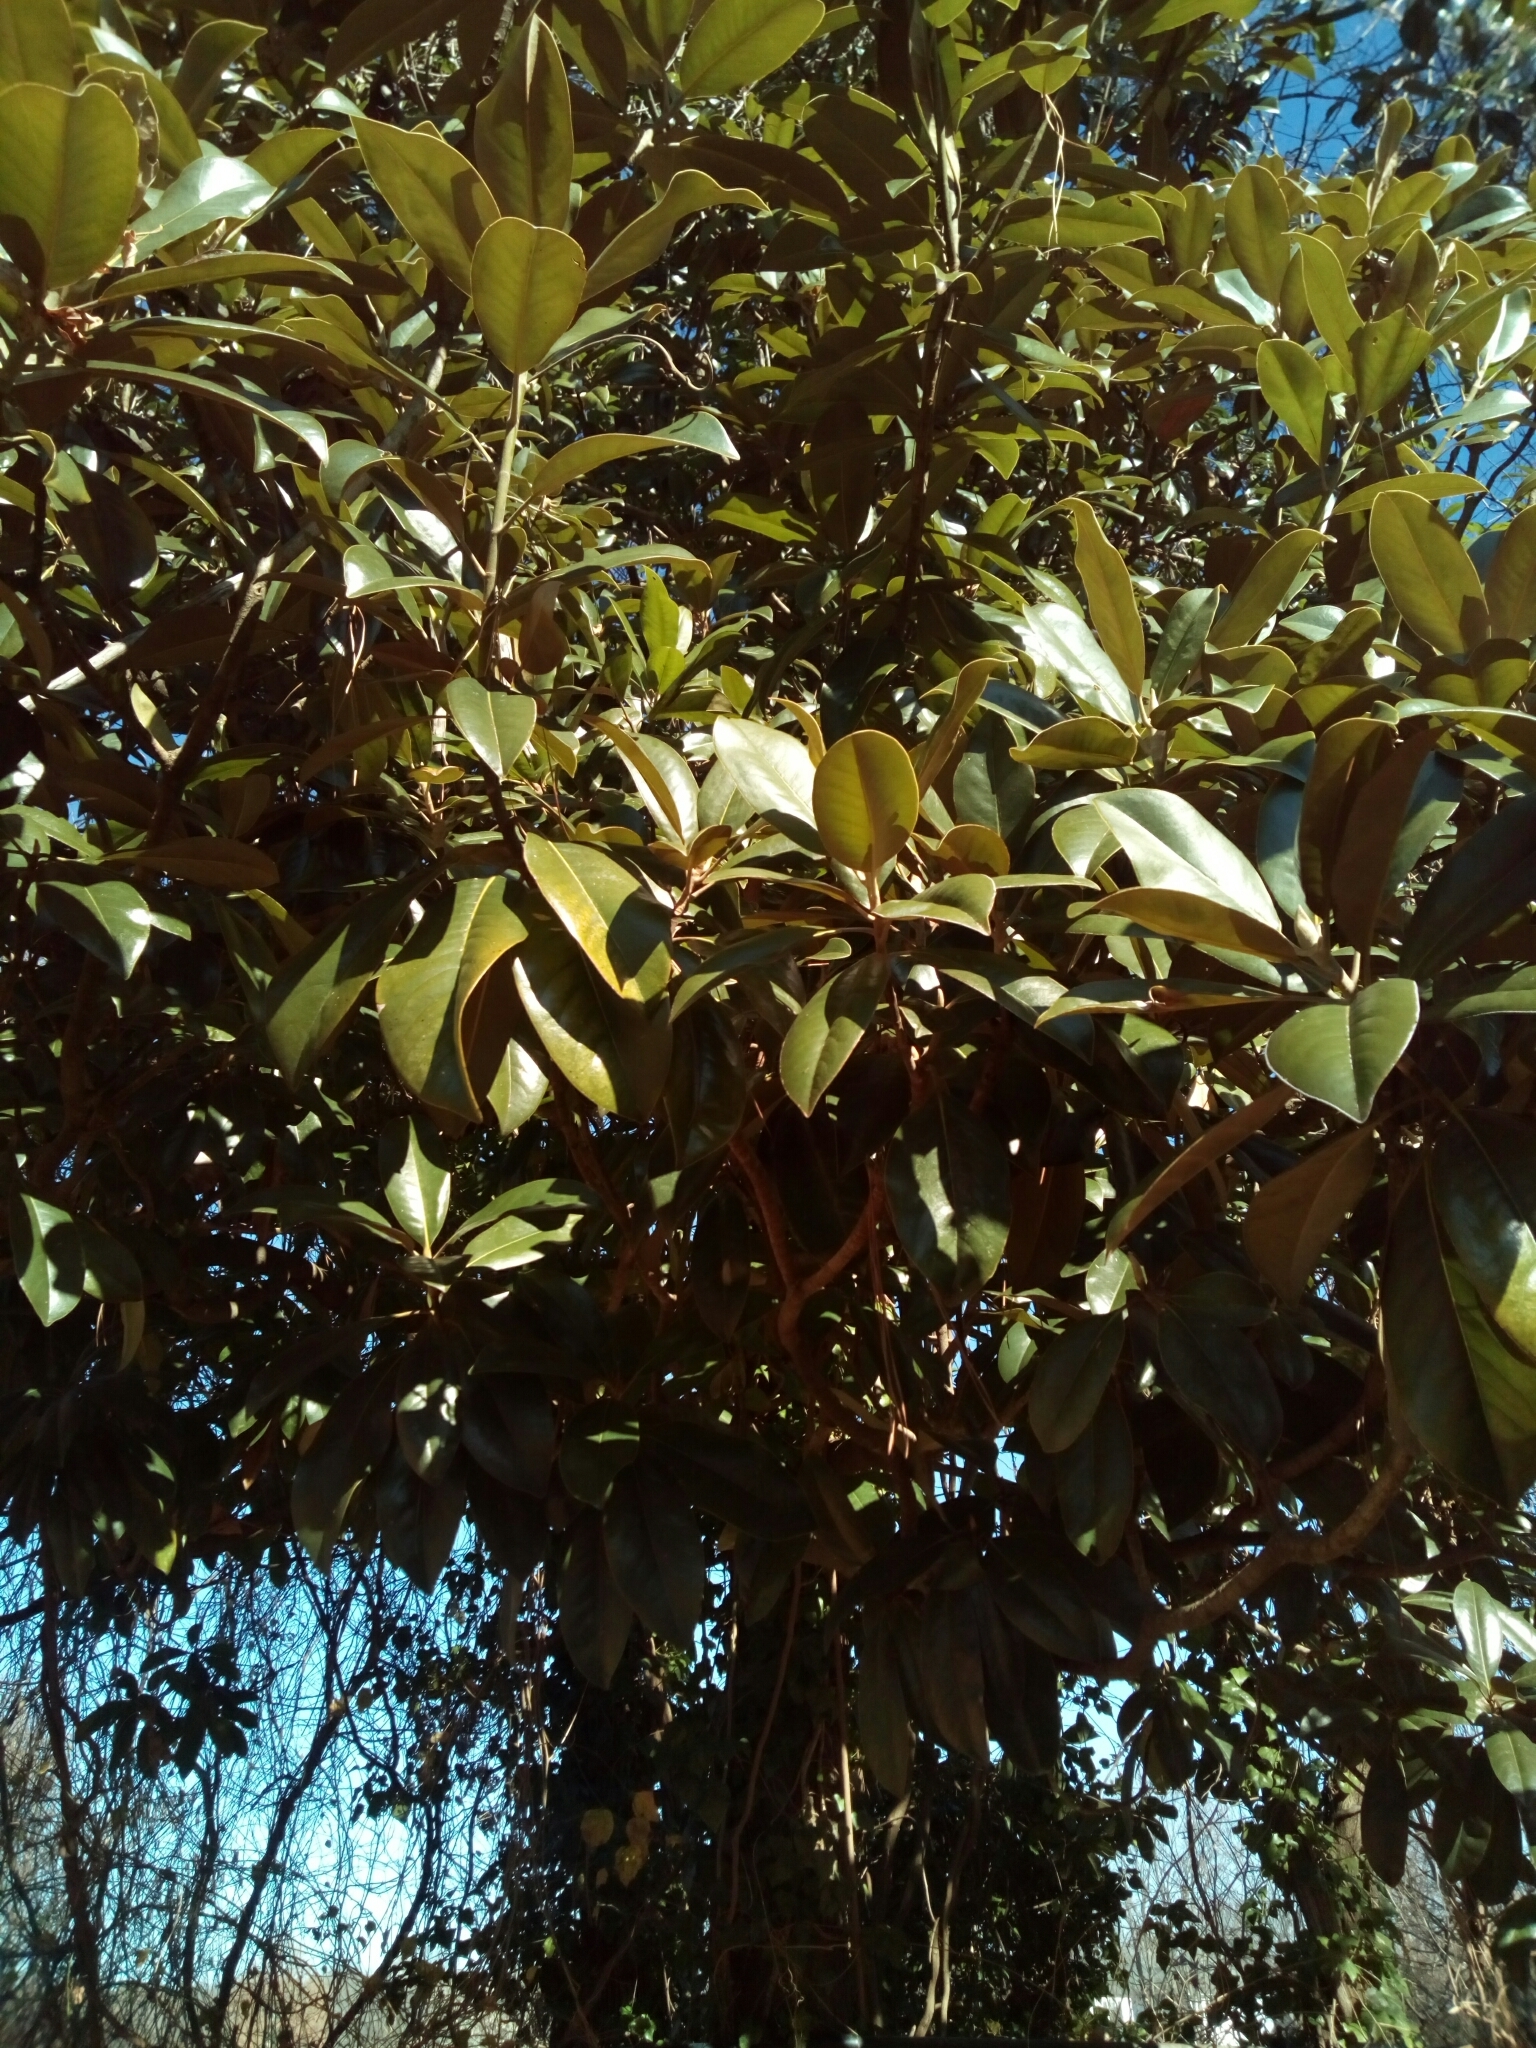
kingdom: Plantae
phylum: Tracheophyta
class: Magnoliopsida
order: Magnoliales
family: Magnoliaceae
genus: Magnolia
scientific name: Magnolia grandiflora
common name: Southern magnolia
